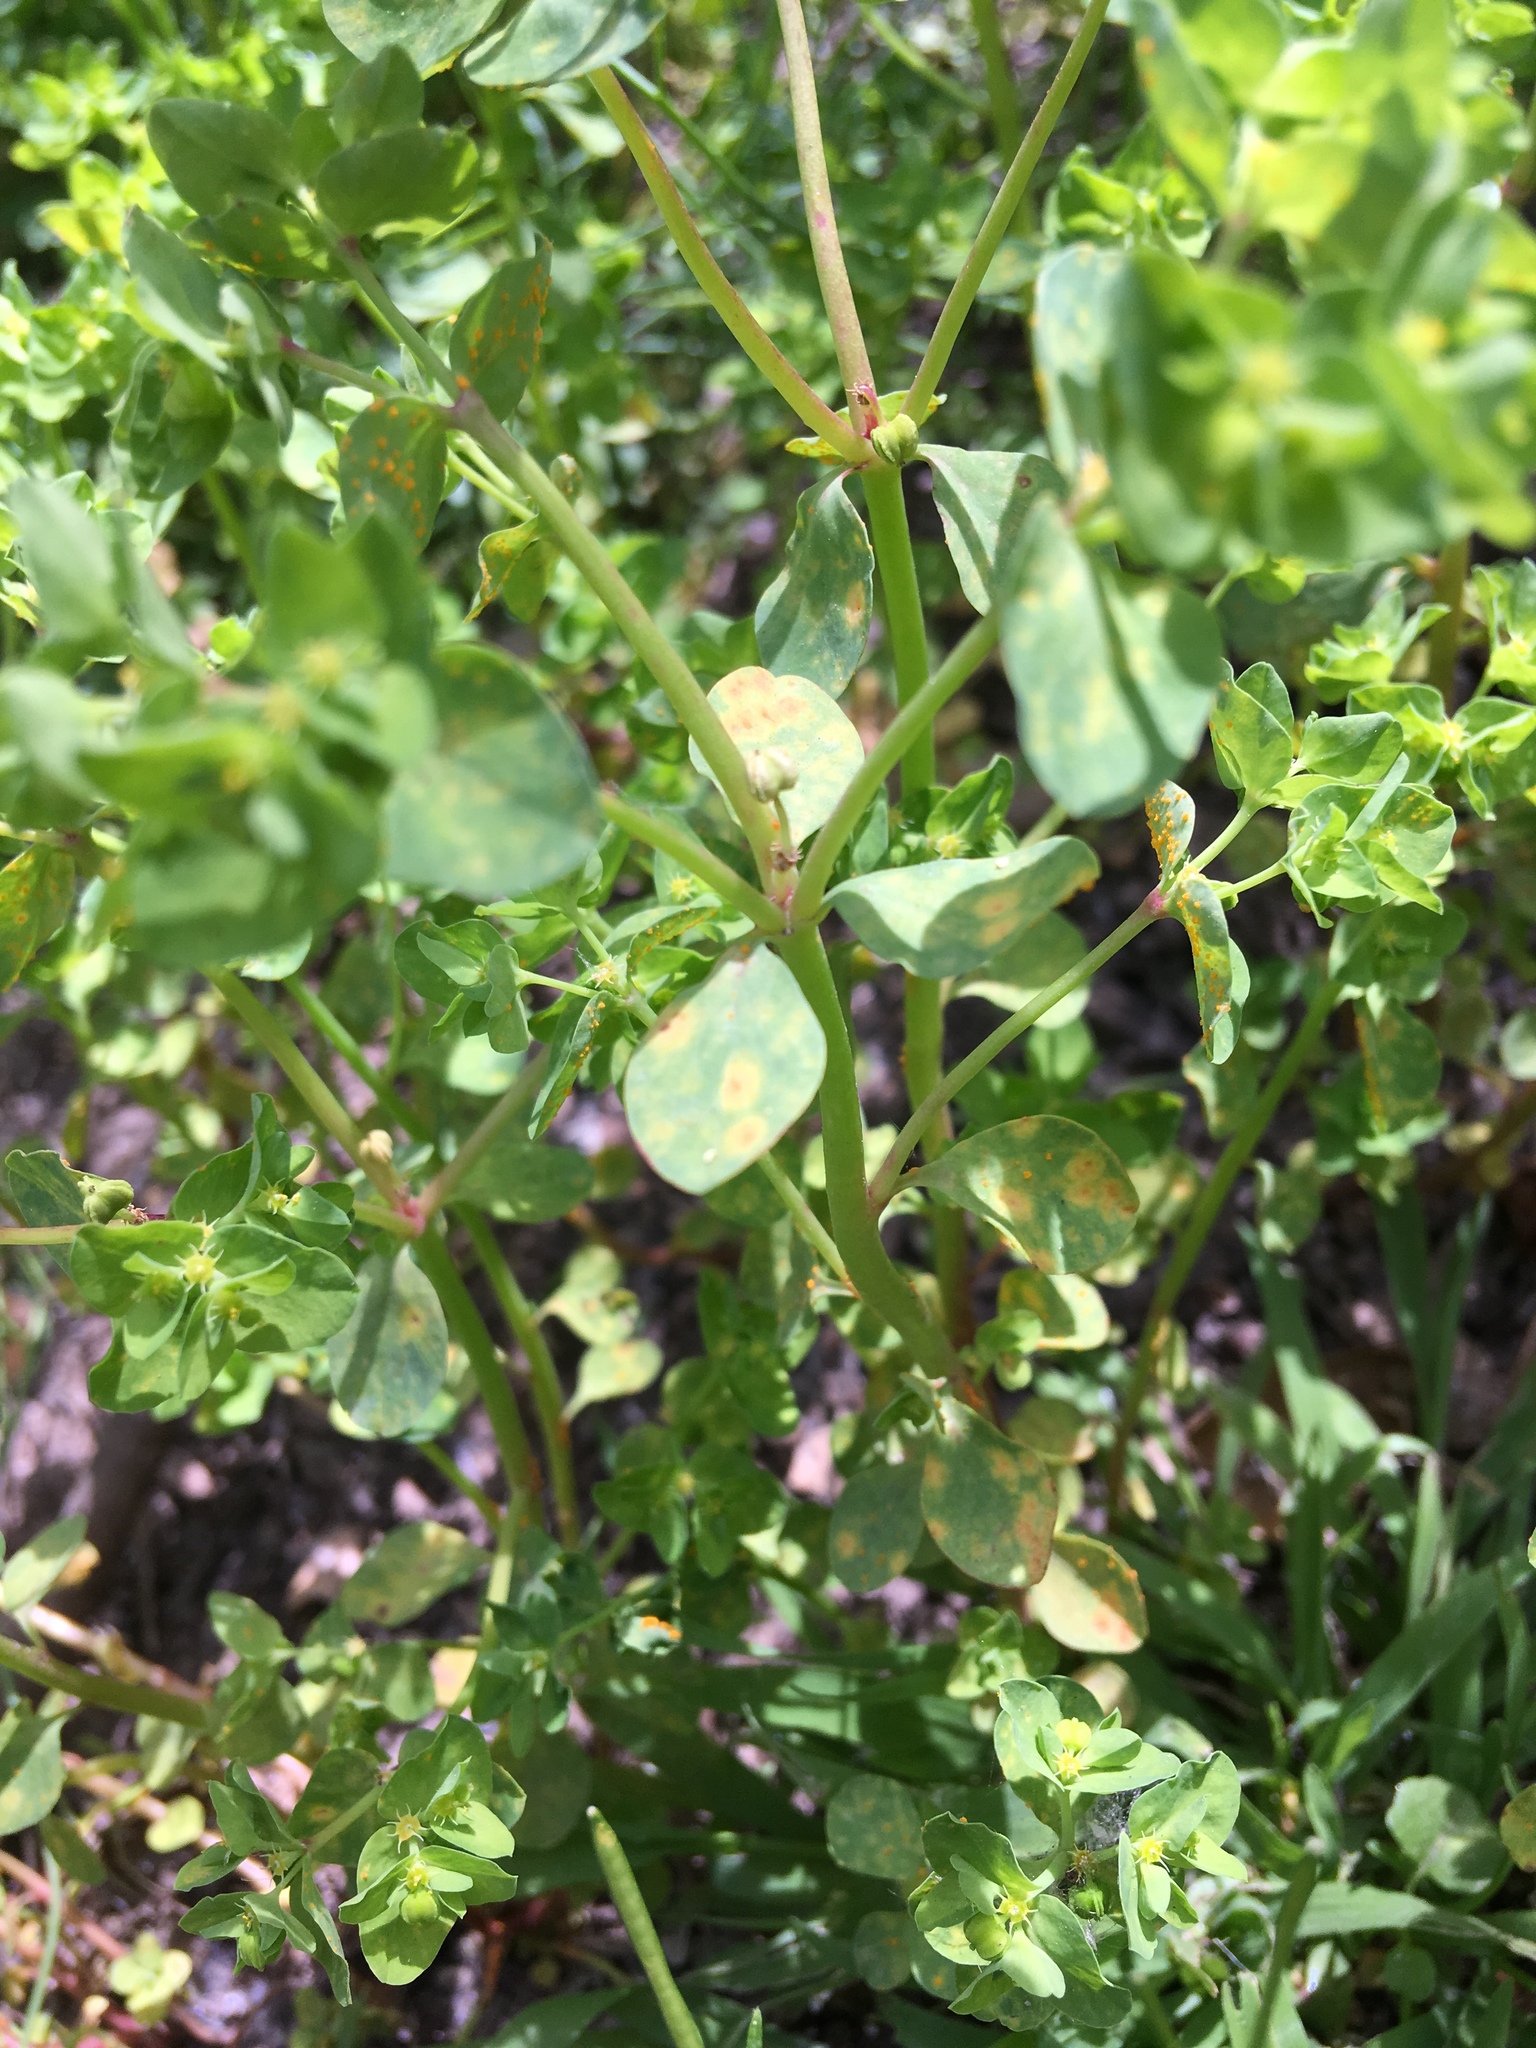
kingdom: Plantae
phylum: Tracheophyta
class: Magnoliopsida
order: Malpighiales
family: Euphorbiaceae
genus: Euphorbia
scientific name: Euphorbia peplus
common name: Petty spurge
